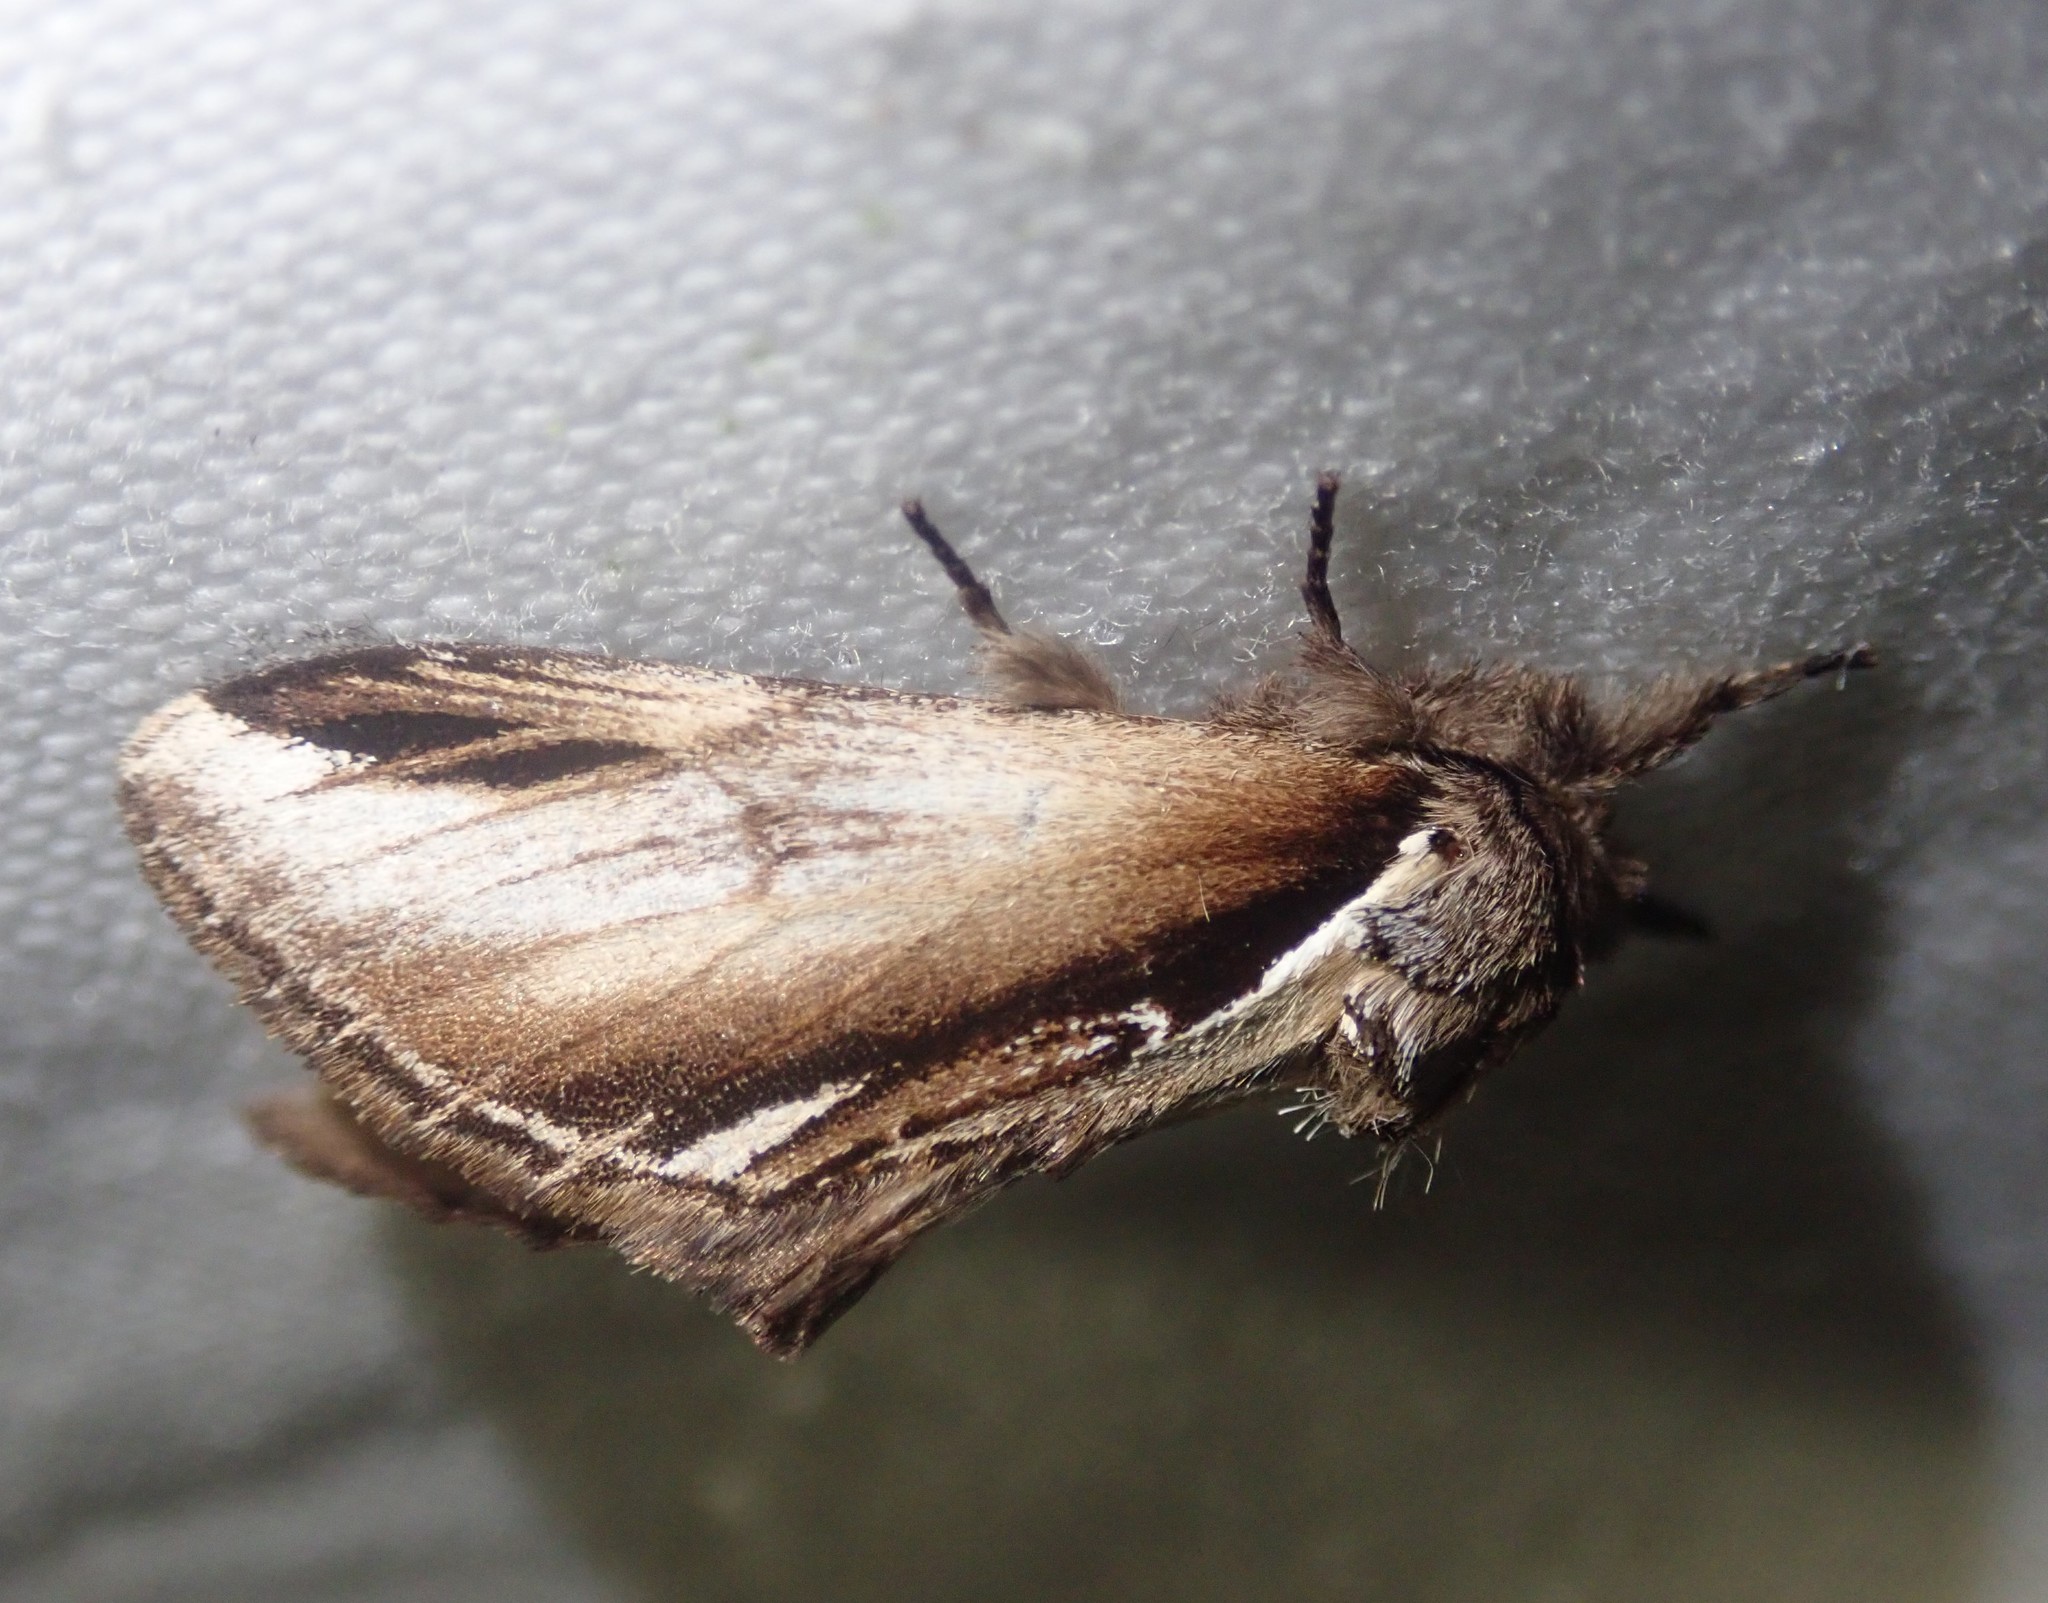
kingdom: Animalia
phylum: Arthropoda
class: Insecta
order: Lepidoptera
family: Notodontidae
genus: Pheosia
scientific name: Pheosia gnoma
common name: Lesser swallow prominent
